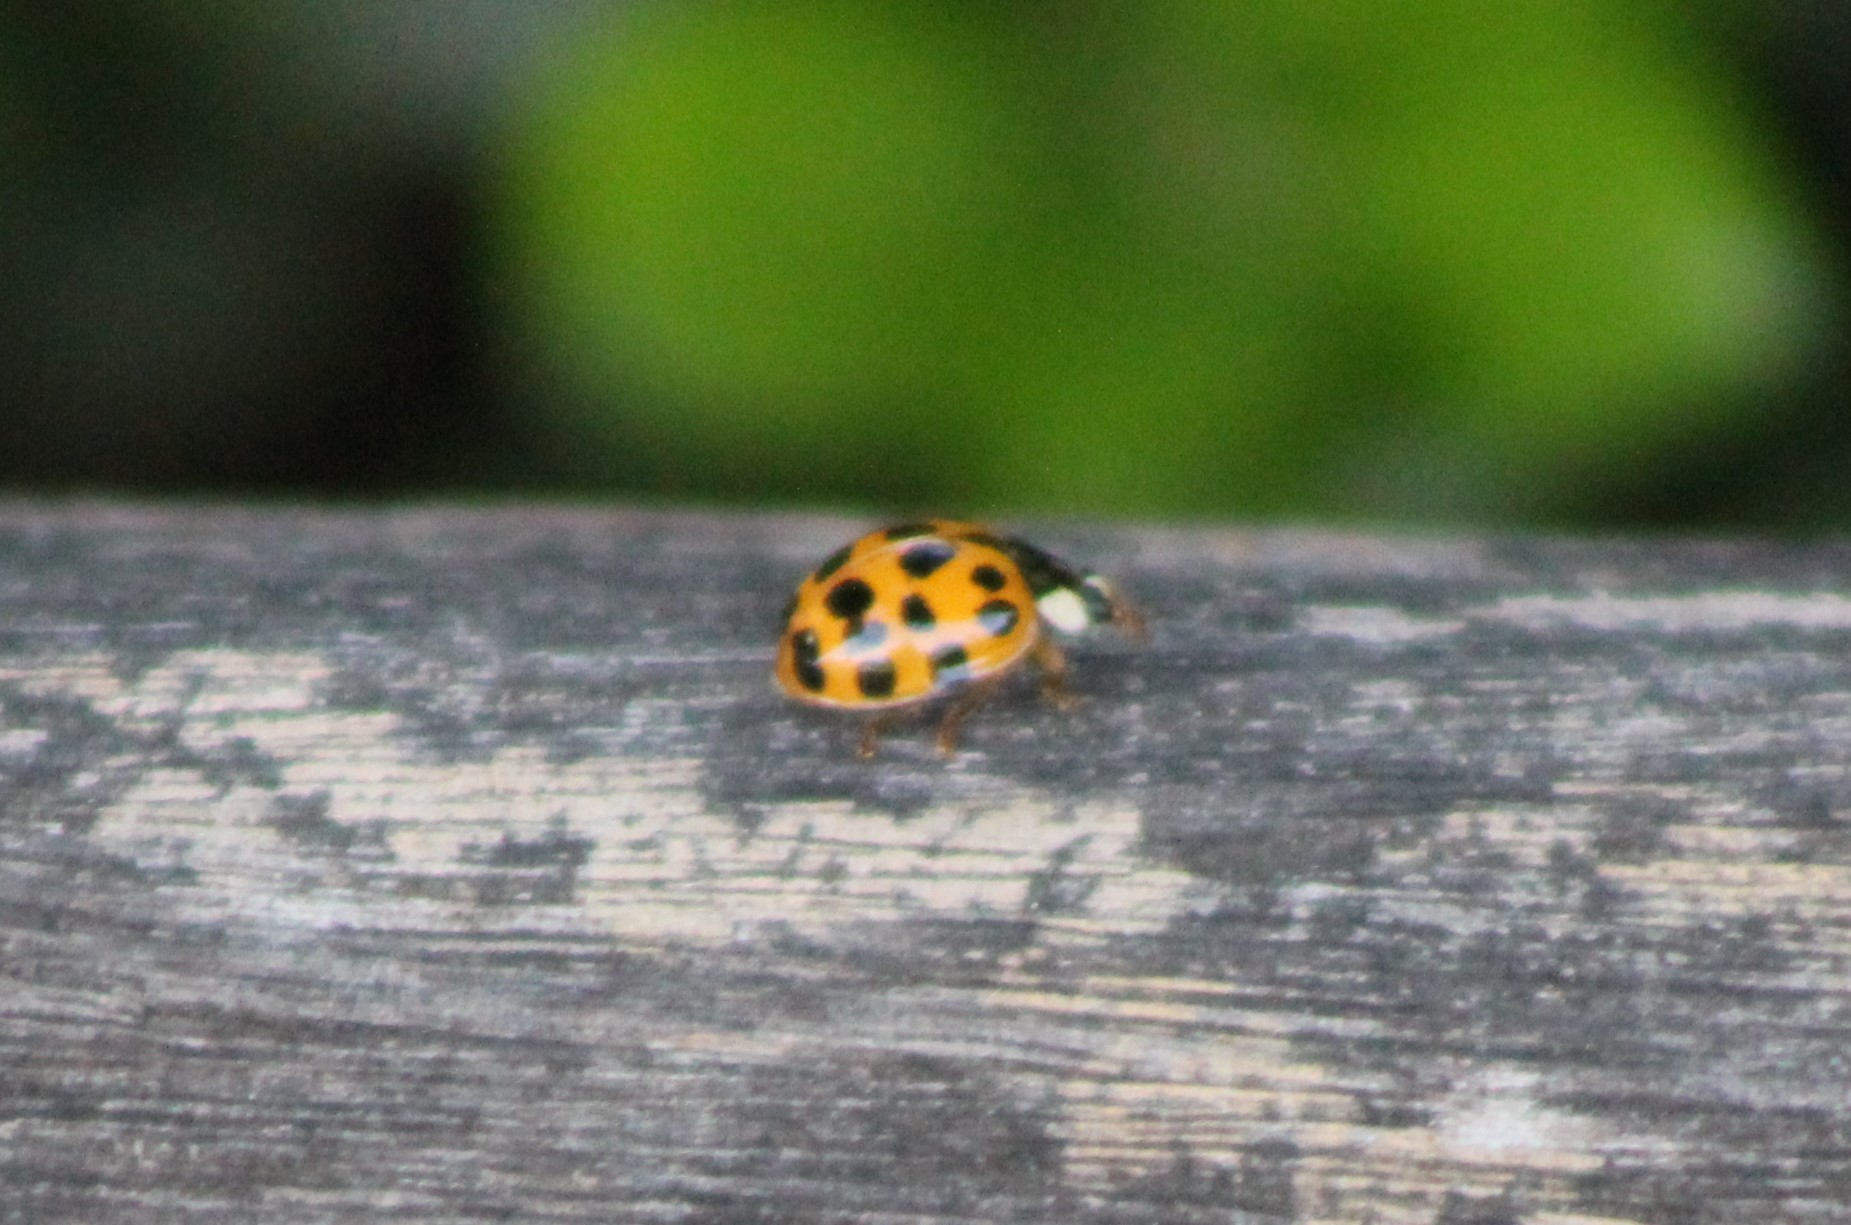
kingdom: Animalia
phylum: Arthropoda
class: Insecta
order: Coleoptera
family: Coccinellidae
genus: Harmonia
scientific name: Harmonia axyridis
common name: Harlequin ladybird
